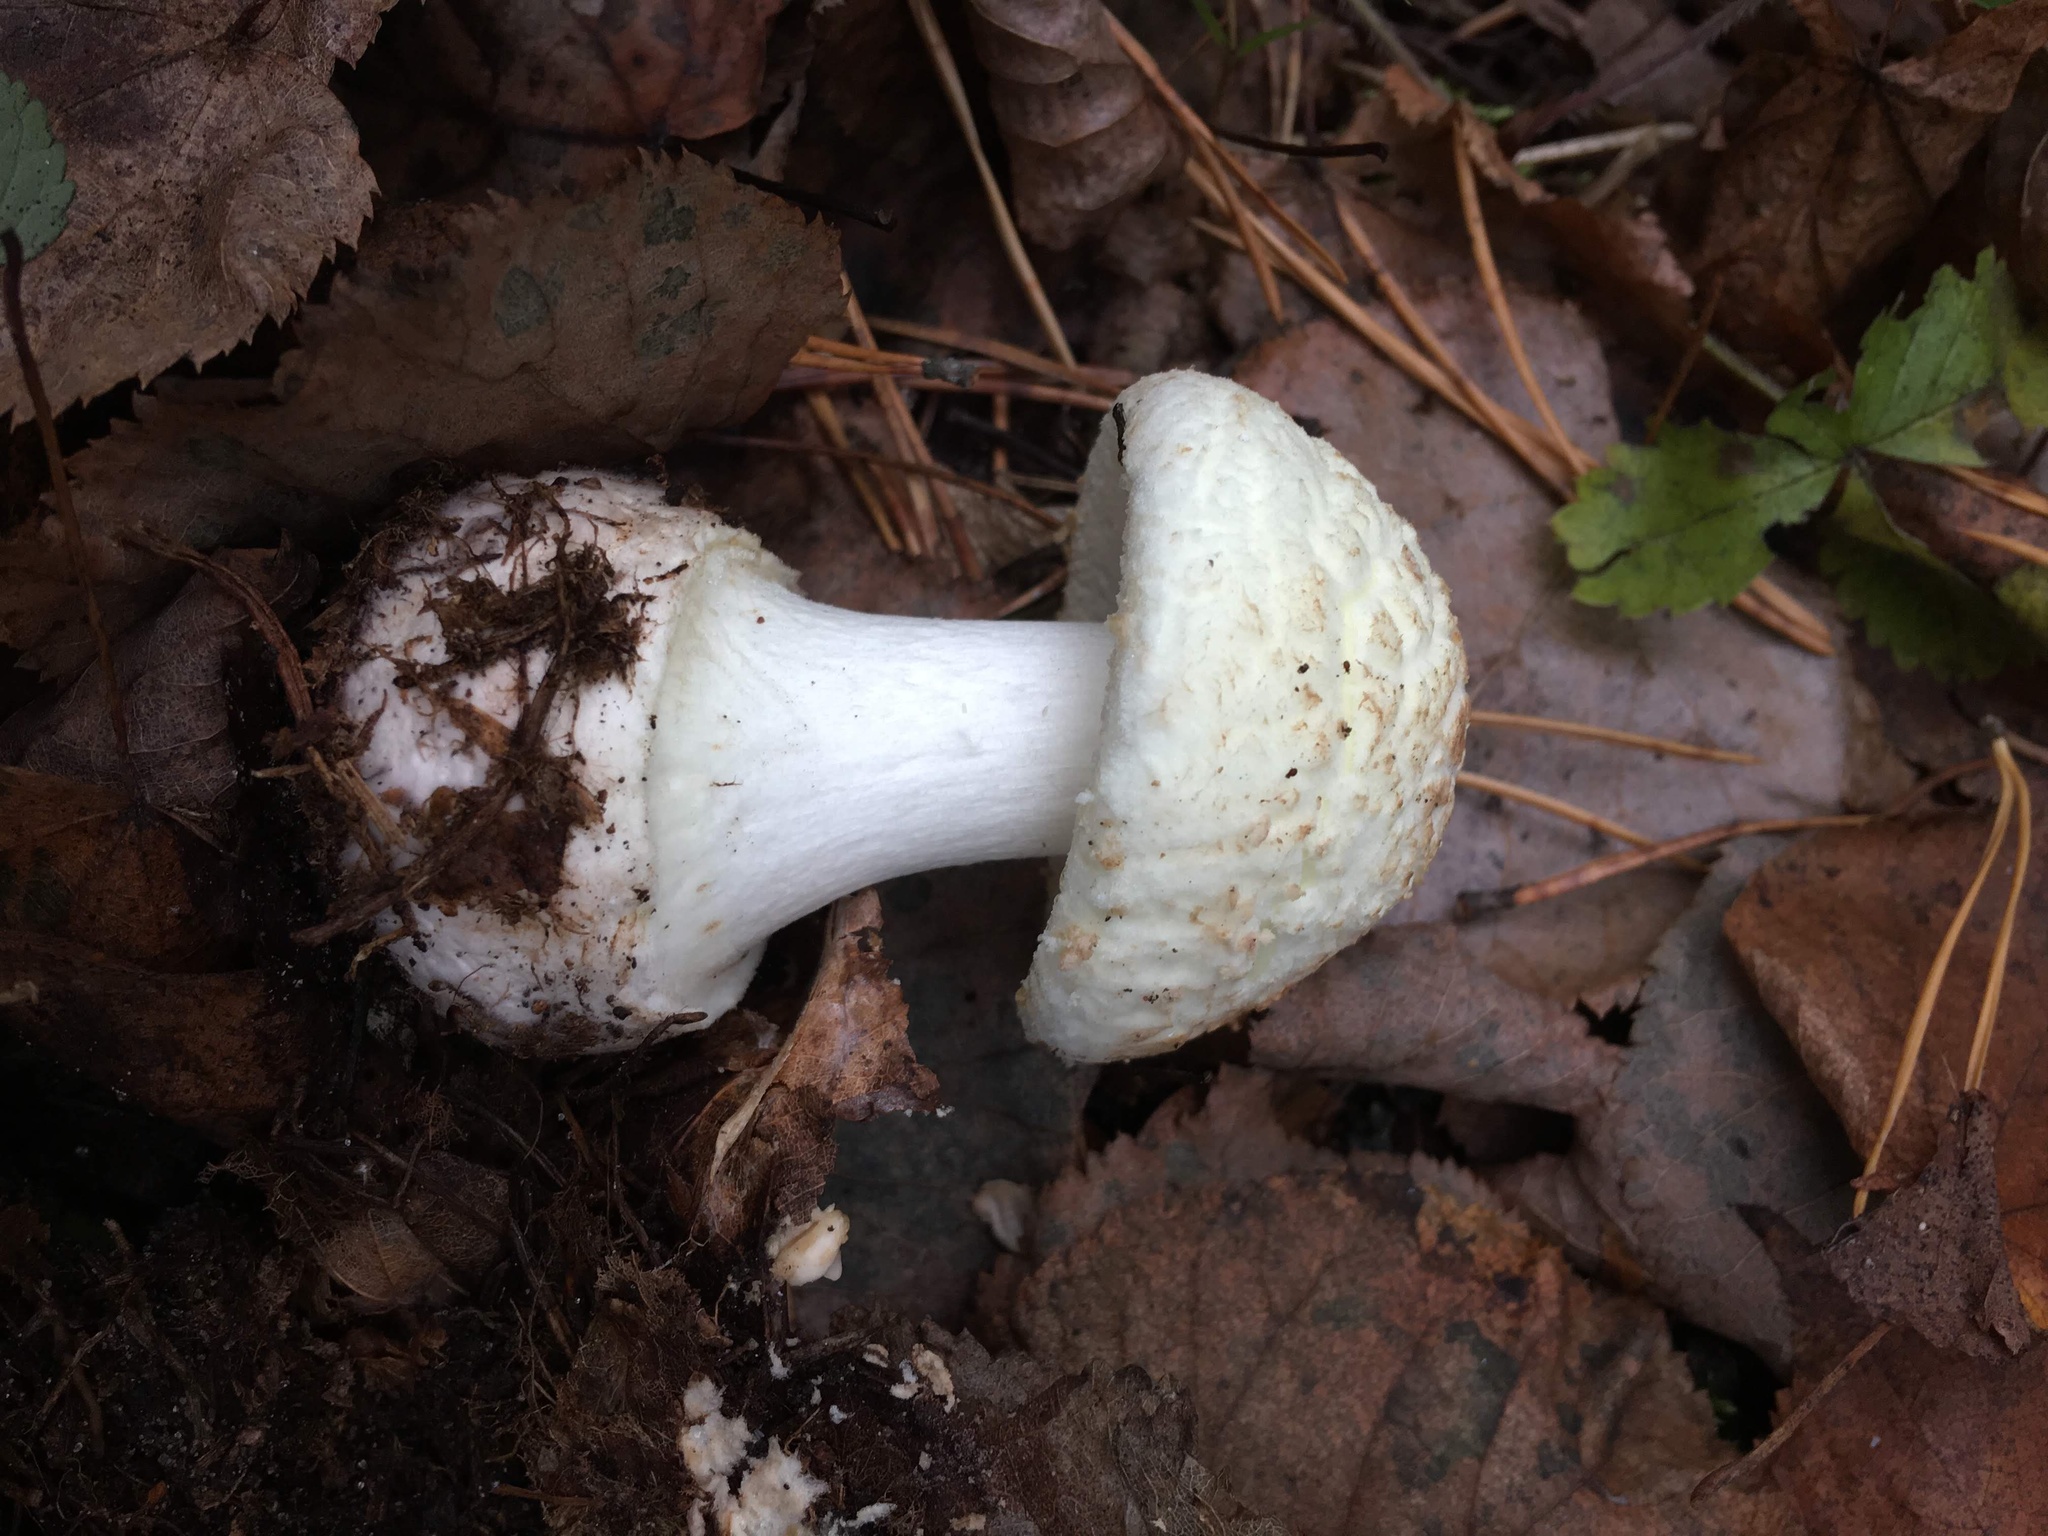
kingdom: Fungi
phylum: Basidiomycota
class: Agaricomycetes
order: Agaricales
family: Amanitaceae
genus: Amanita
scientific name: Amanita citrina
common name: False death-cap
